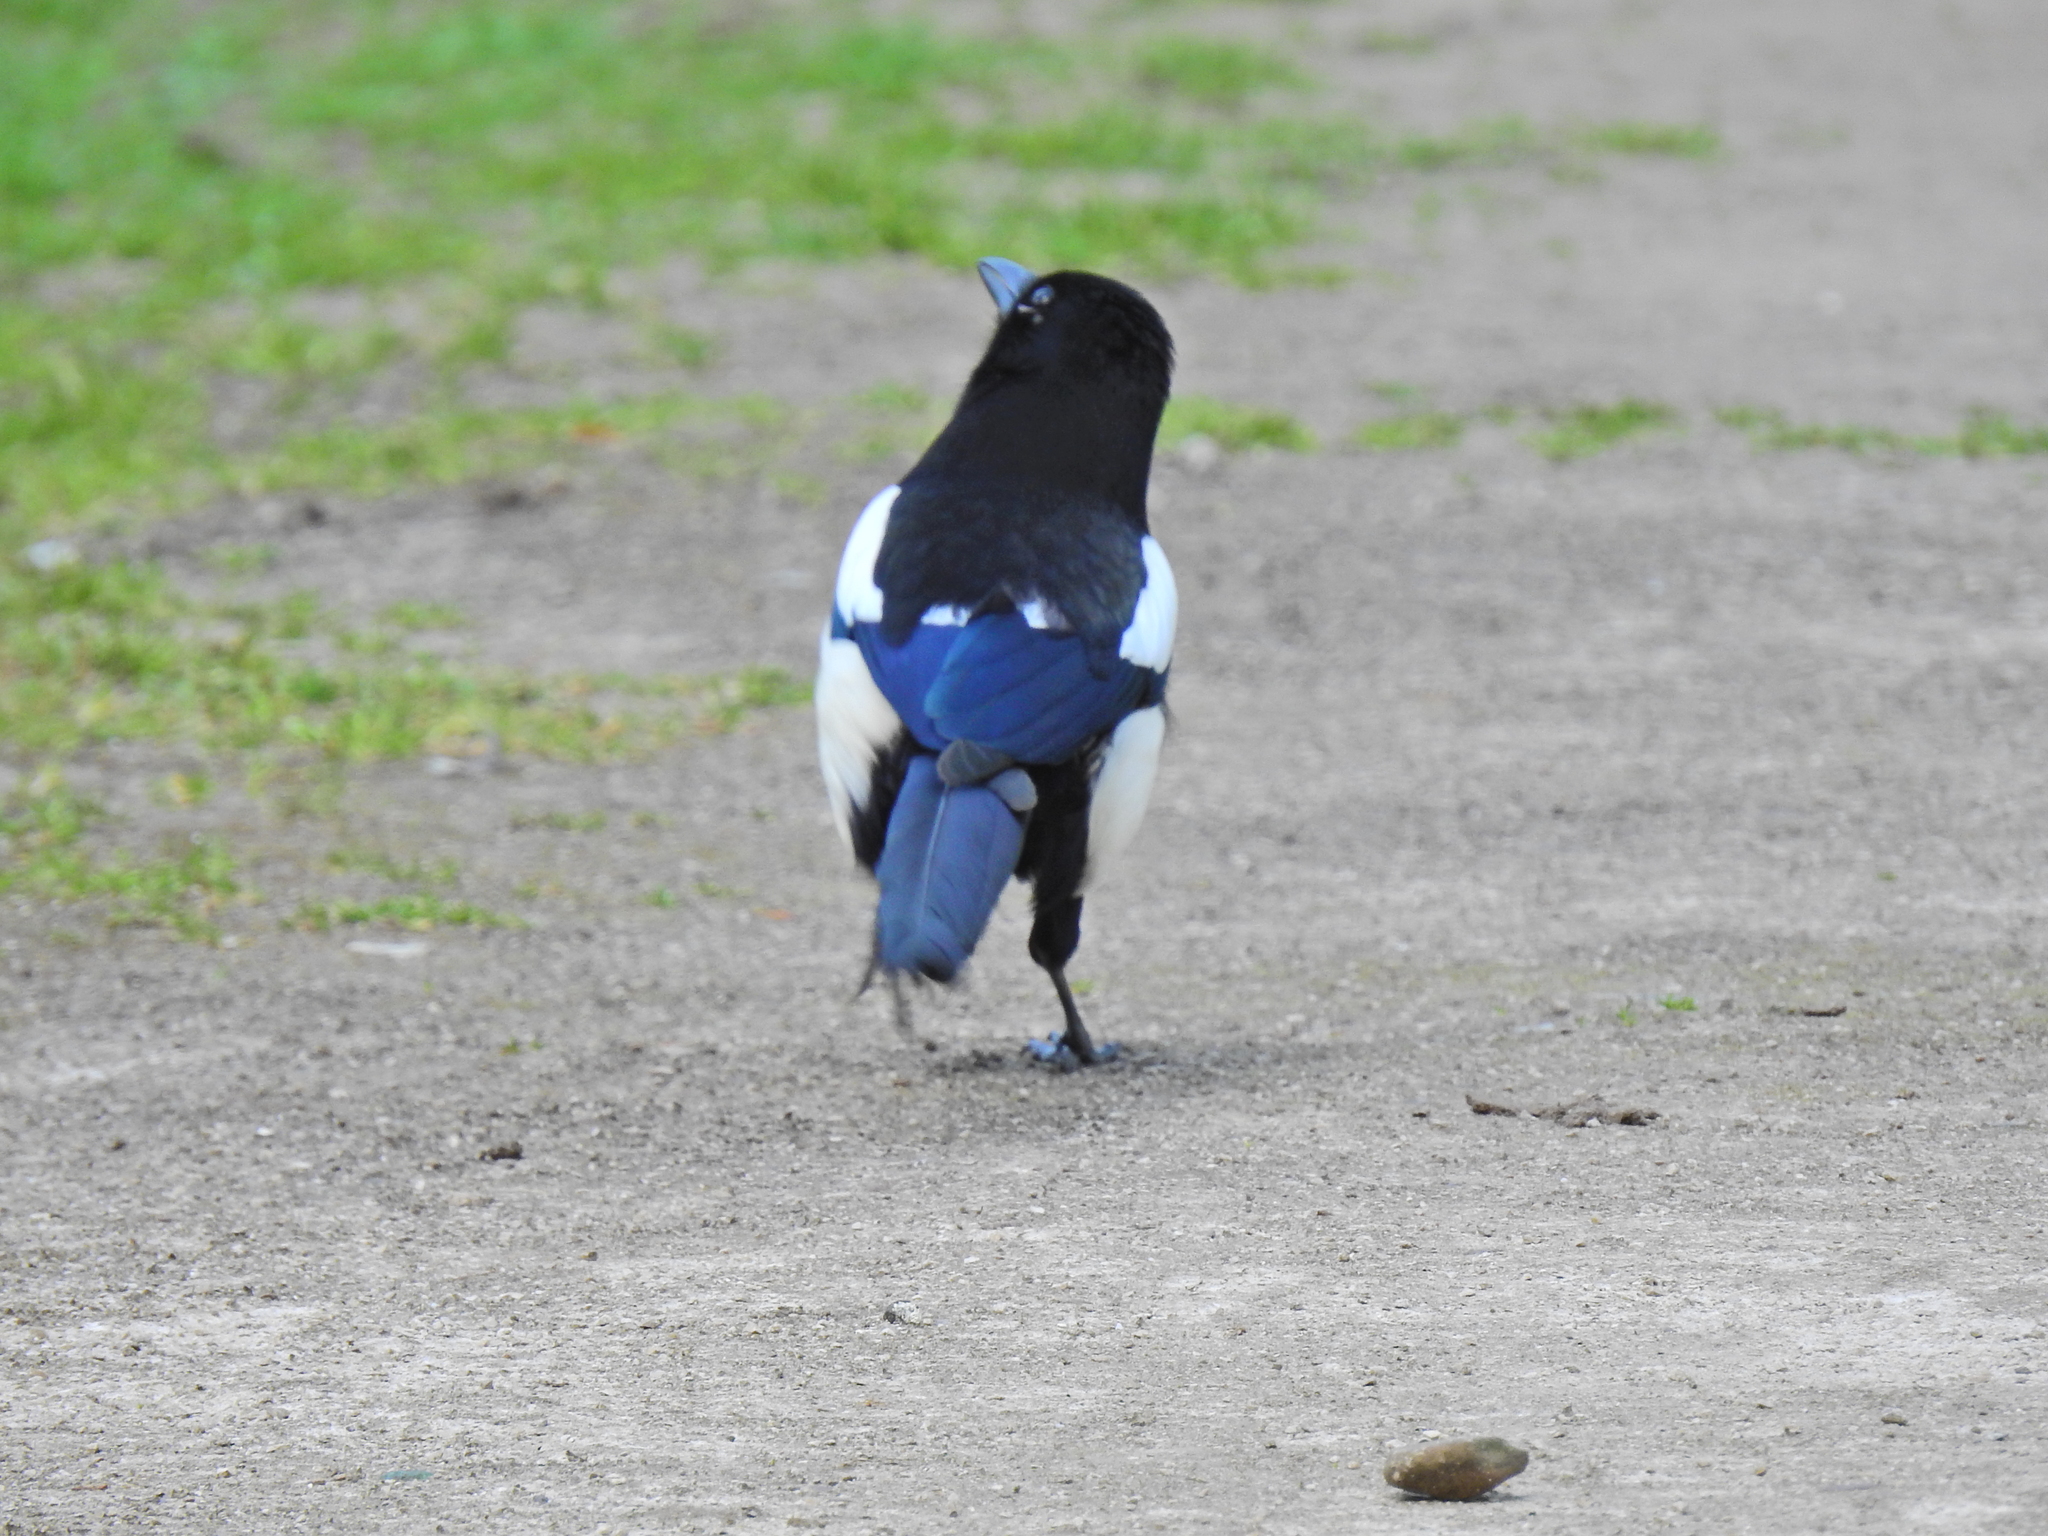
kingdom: Animalia
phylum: Chordata
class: Aves
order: Passeriformes
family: Corvidae
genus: Pica
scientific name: Pica pica
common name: Eurasian magpie
